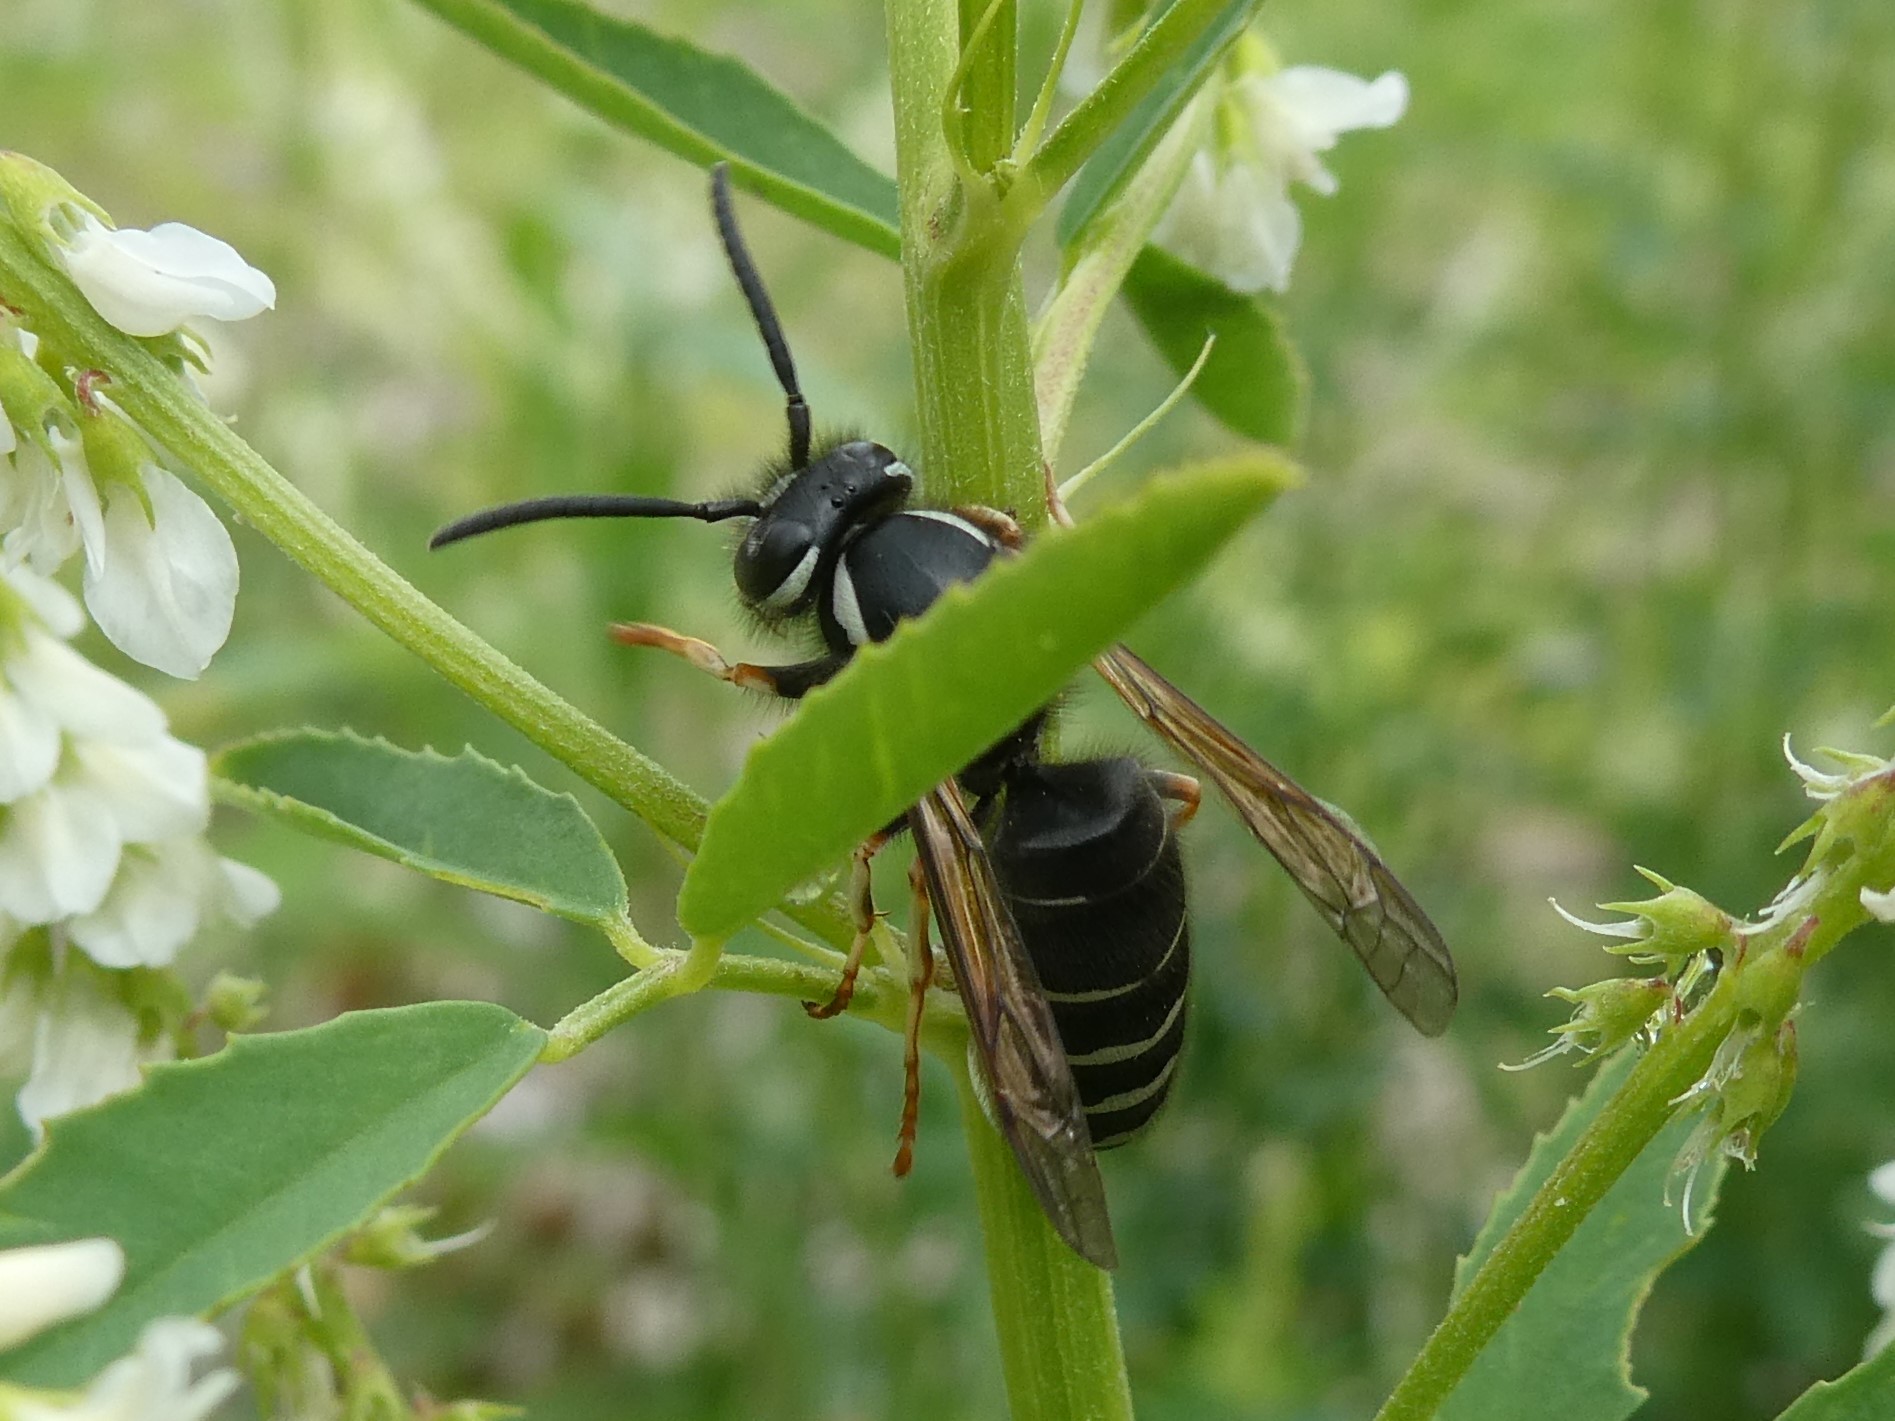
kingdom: Animalia
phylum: Arthropoda
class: Insecta
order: Hymenoptera
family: Vespidae
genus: Vespula
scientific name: Vespula consobrina
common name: Blackjacket
